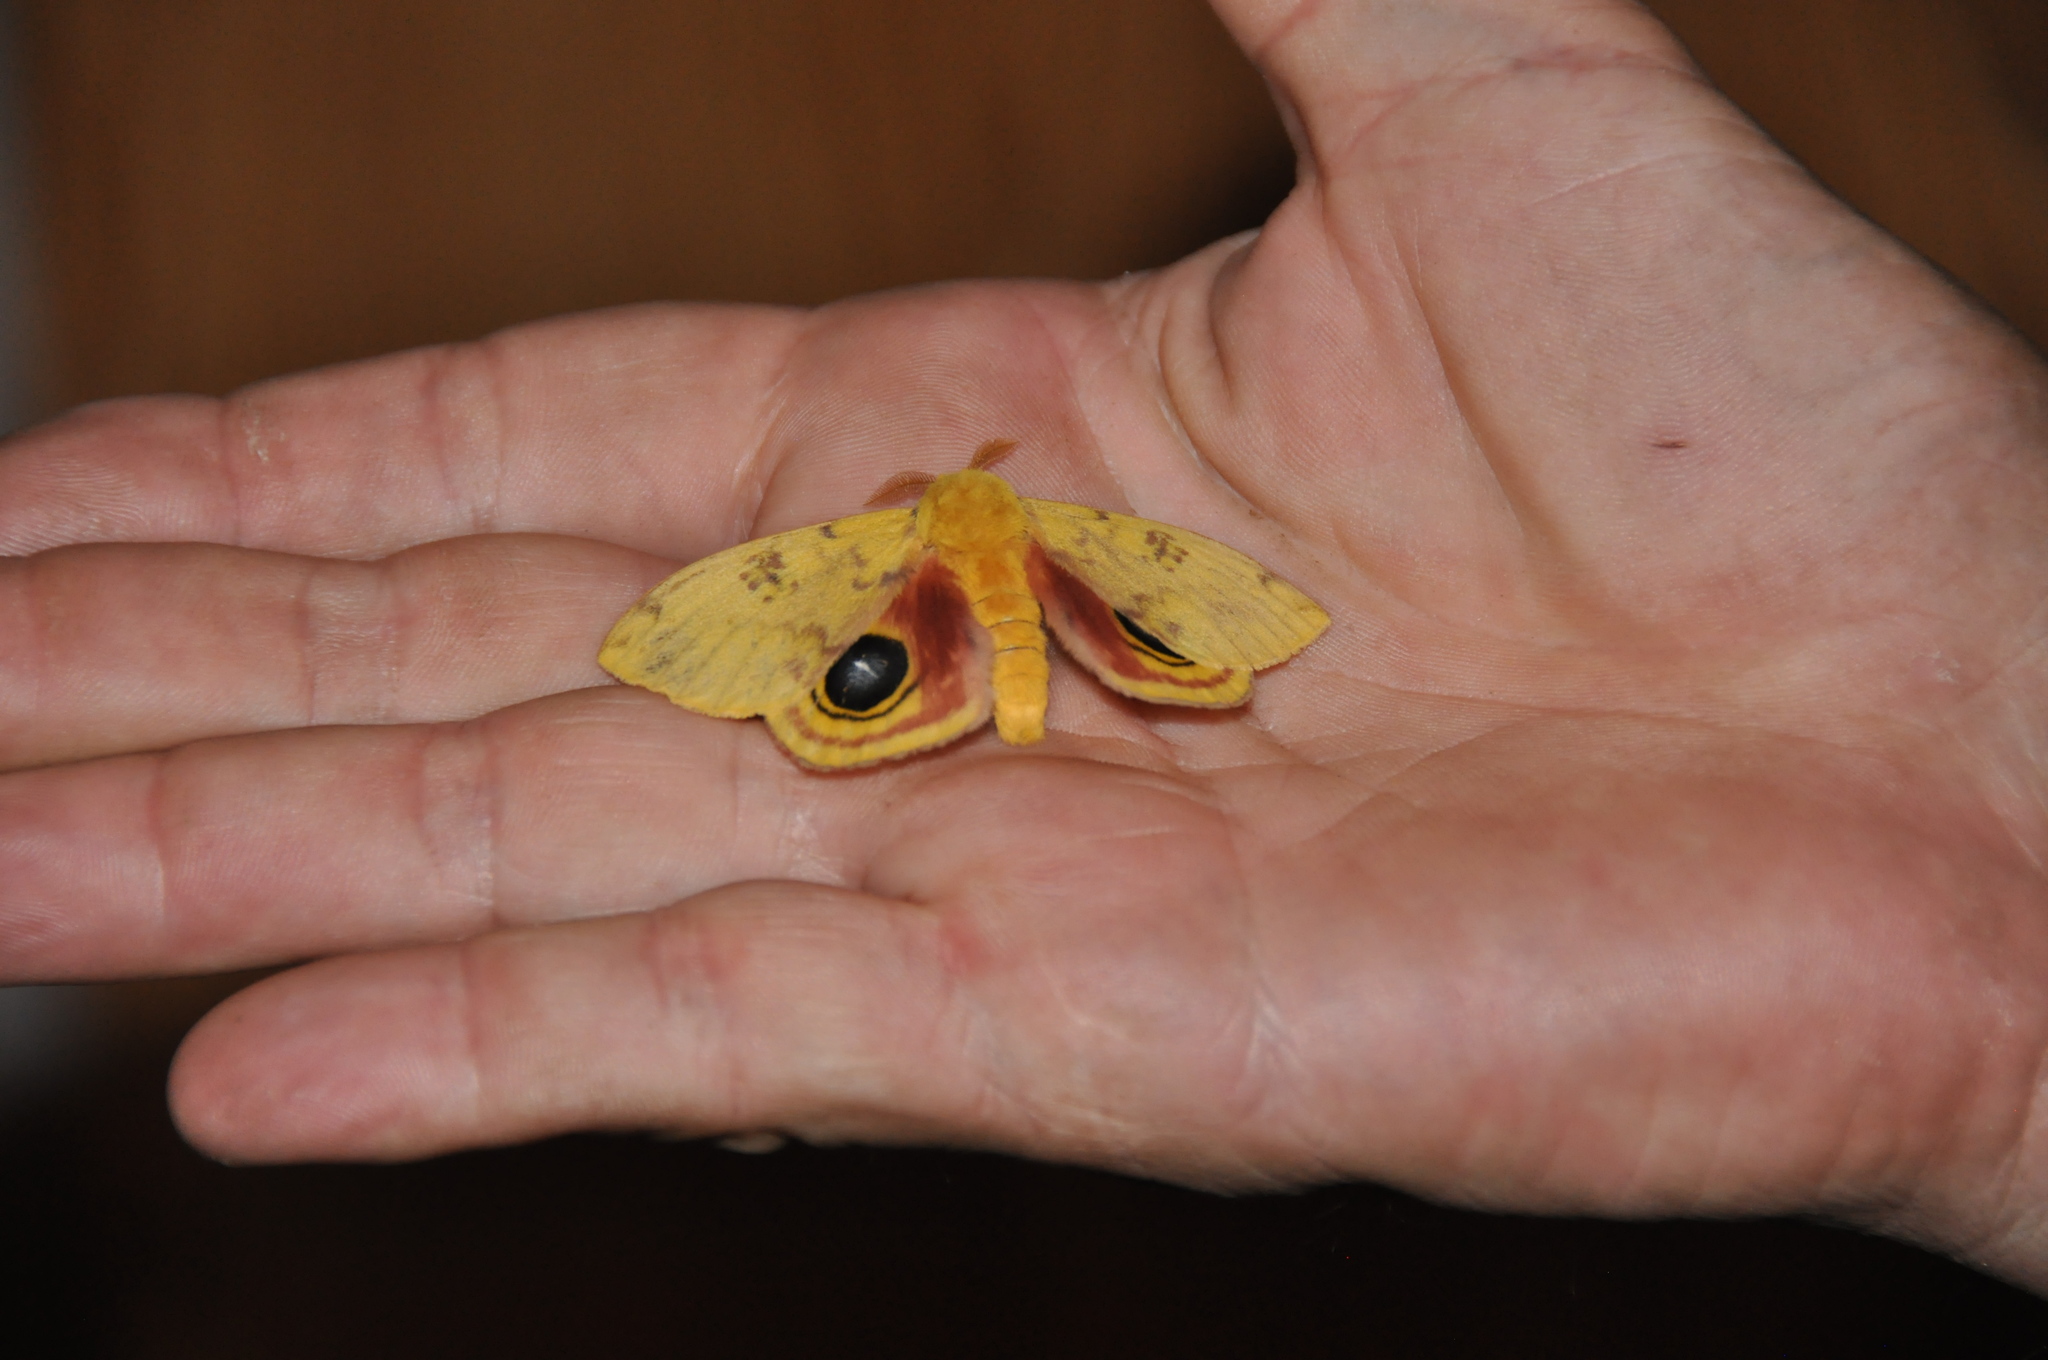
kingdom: Animalia
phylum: Arthropoda
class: Insecta
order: Lepidoptera
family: Saturniidae
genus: Automeris
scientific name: Automeris io
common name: Io moth
